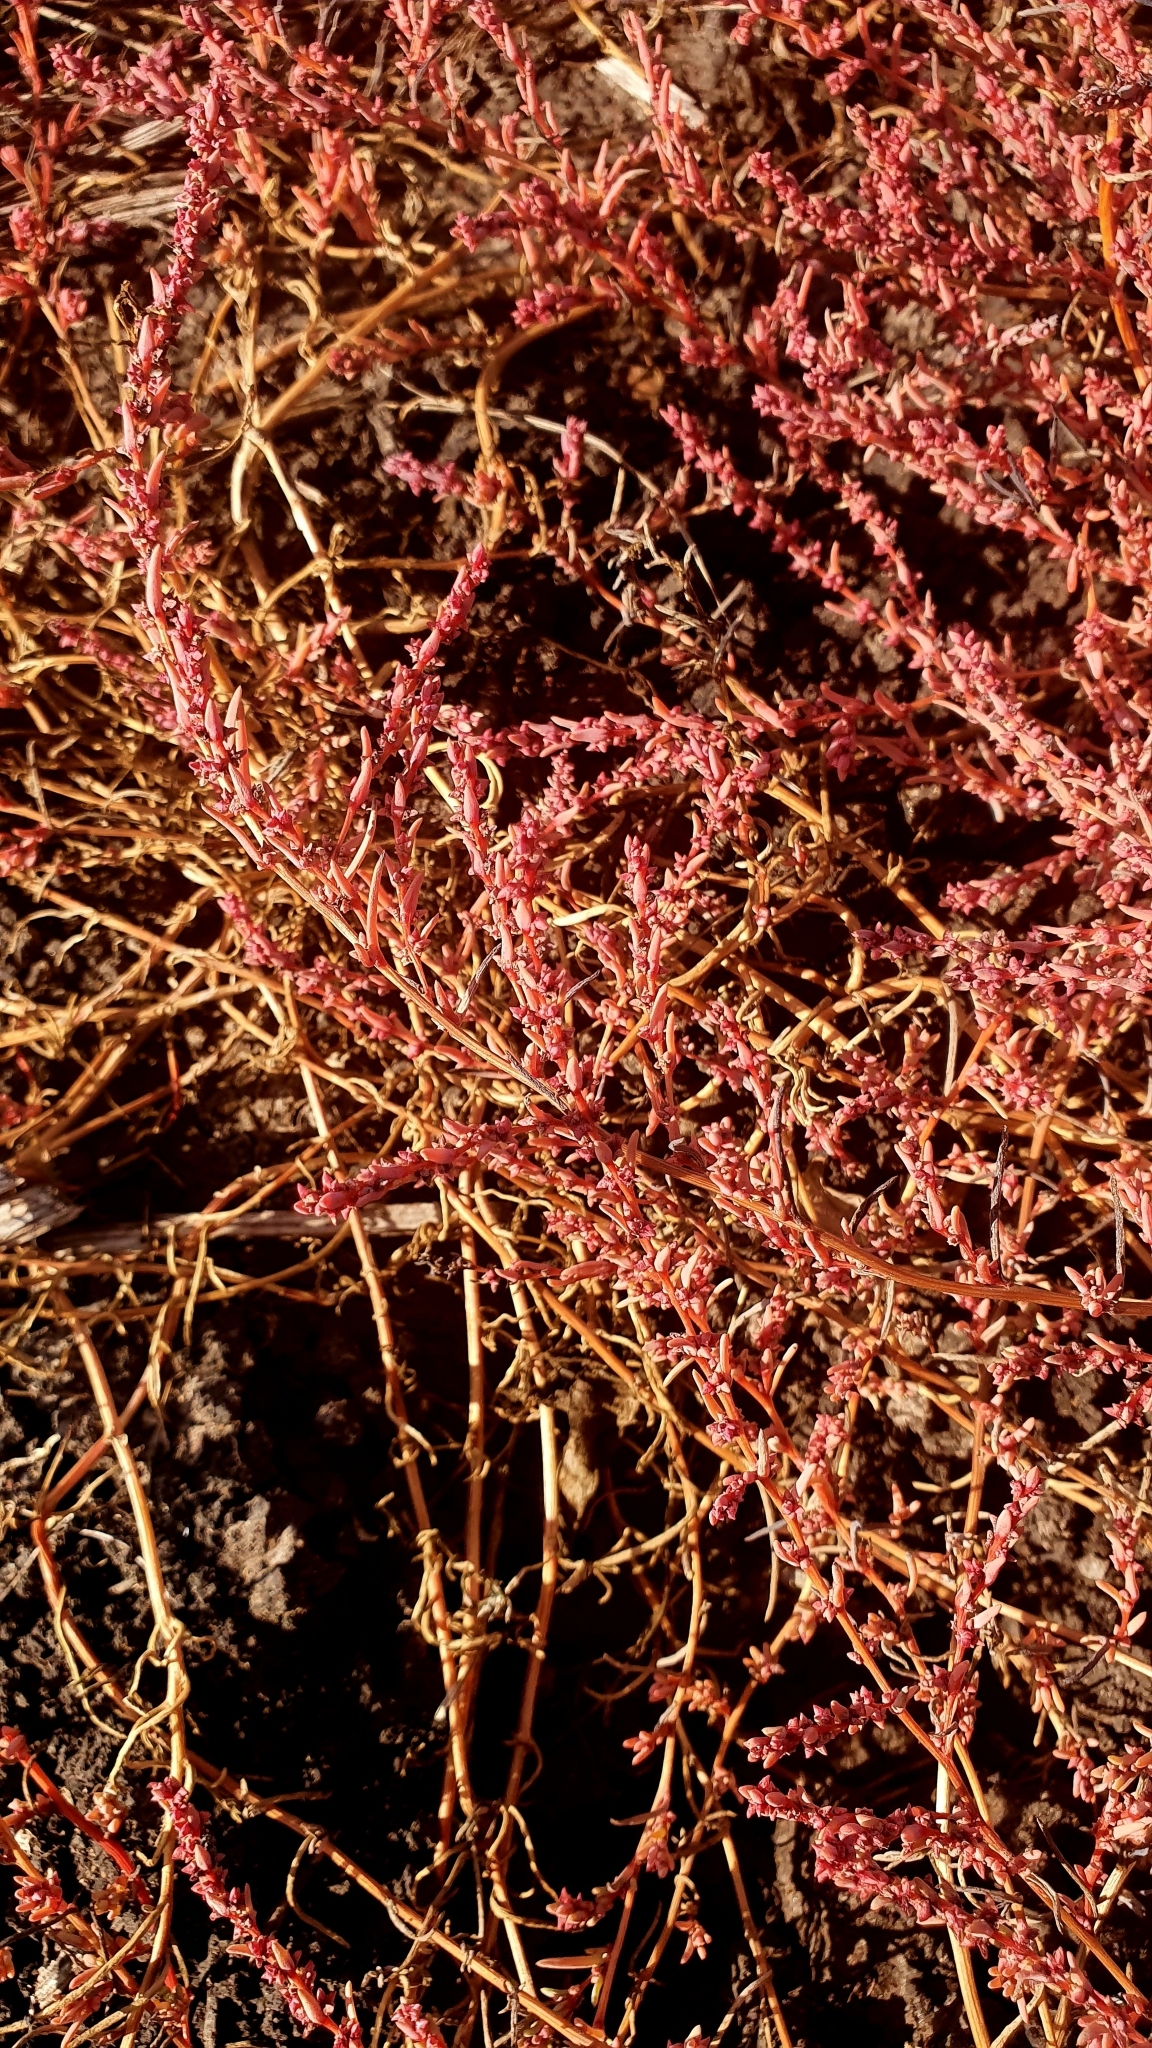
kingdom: Plantae
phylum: Tracheophyta
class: Magnoliopsida
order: Caryophyllales
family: Amaranthaceae
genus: Suaeda
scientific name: Suaeda acuminata
